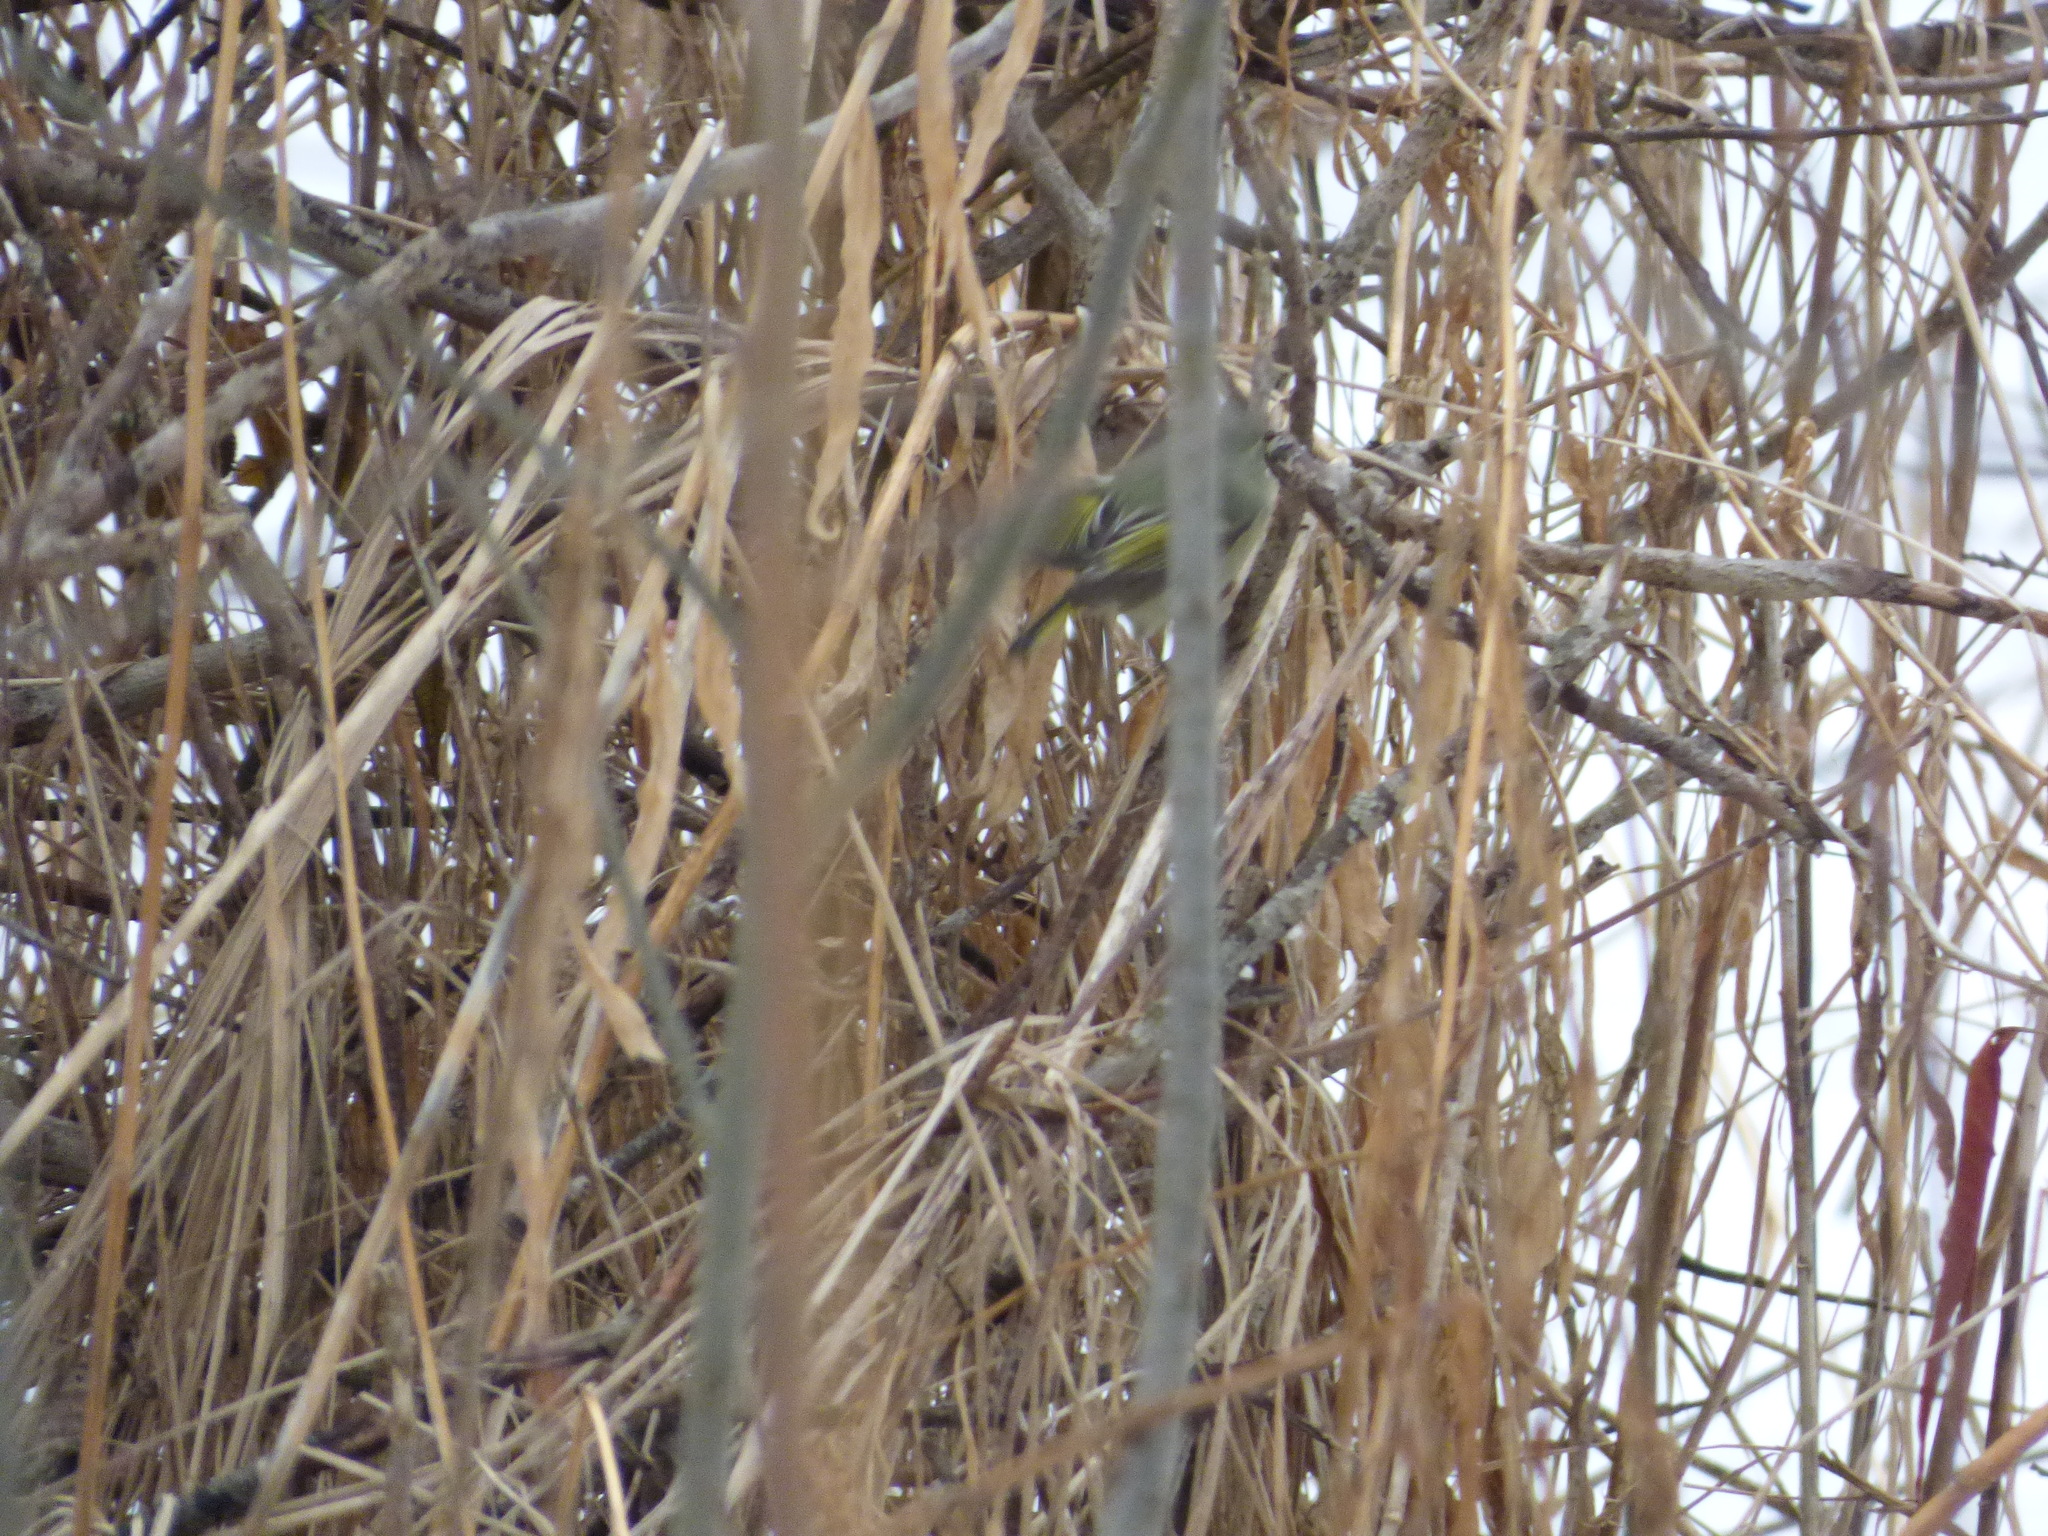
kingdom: Animalia
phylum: Chordata
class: Aves
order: Passeriformes
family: Regulidae
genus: Regulus
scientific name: Regulus calendula
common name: Ruby-crowned kinglet
